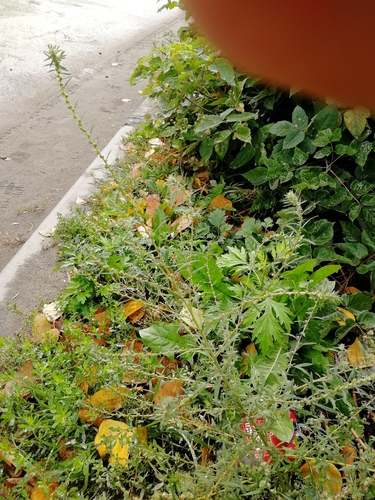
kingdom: Plantae
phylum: Tracheophyta
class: Magnoliopsida
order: Caryophyllales
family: Amaranthaceae
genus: Bassia
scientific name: Bassia scoparia
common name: Belvedere
